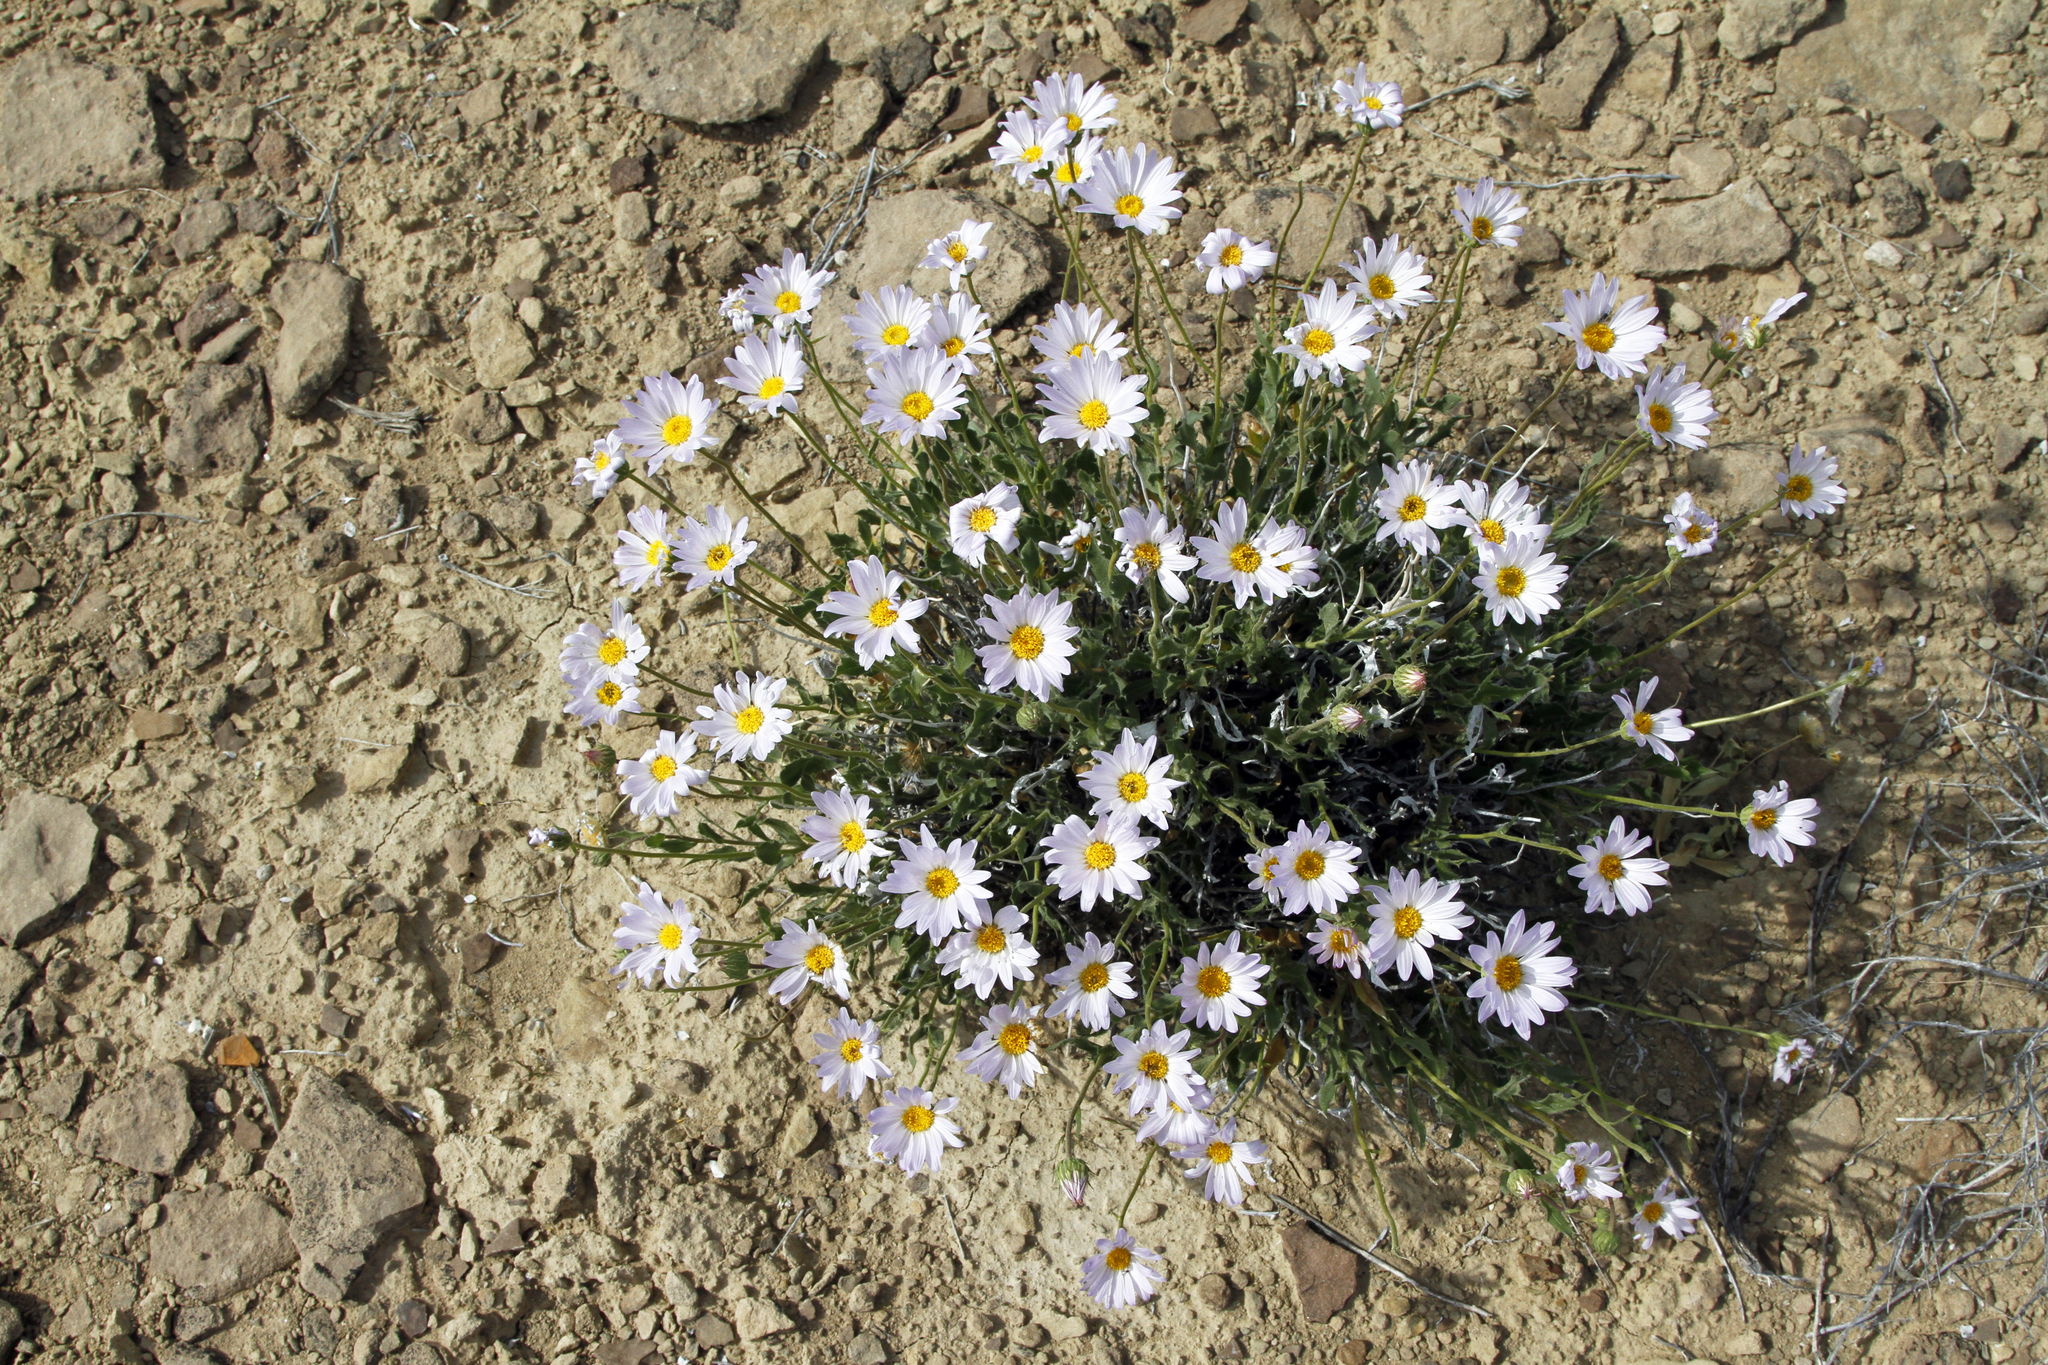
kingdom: Plantae
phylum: Tracheophyta
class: Magnoliopsida
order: Asterales
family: Asteraceae
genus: Xylorhiza
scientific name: Xylorhiza tortifolia
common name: Hurt-leaf woody-aster
